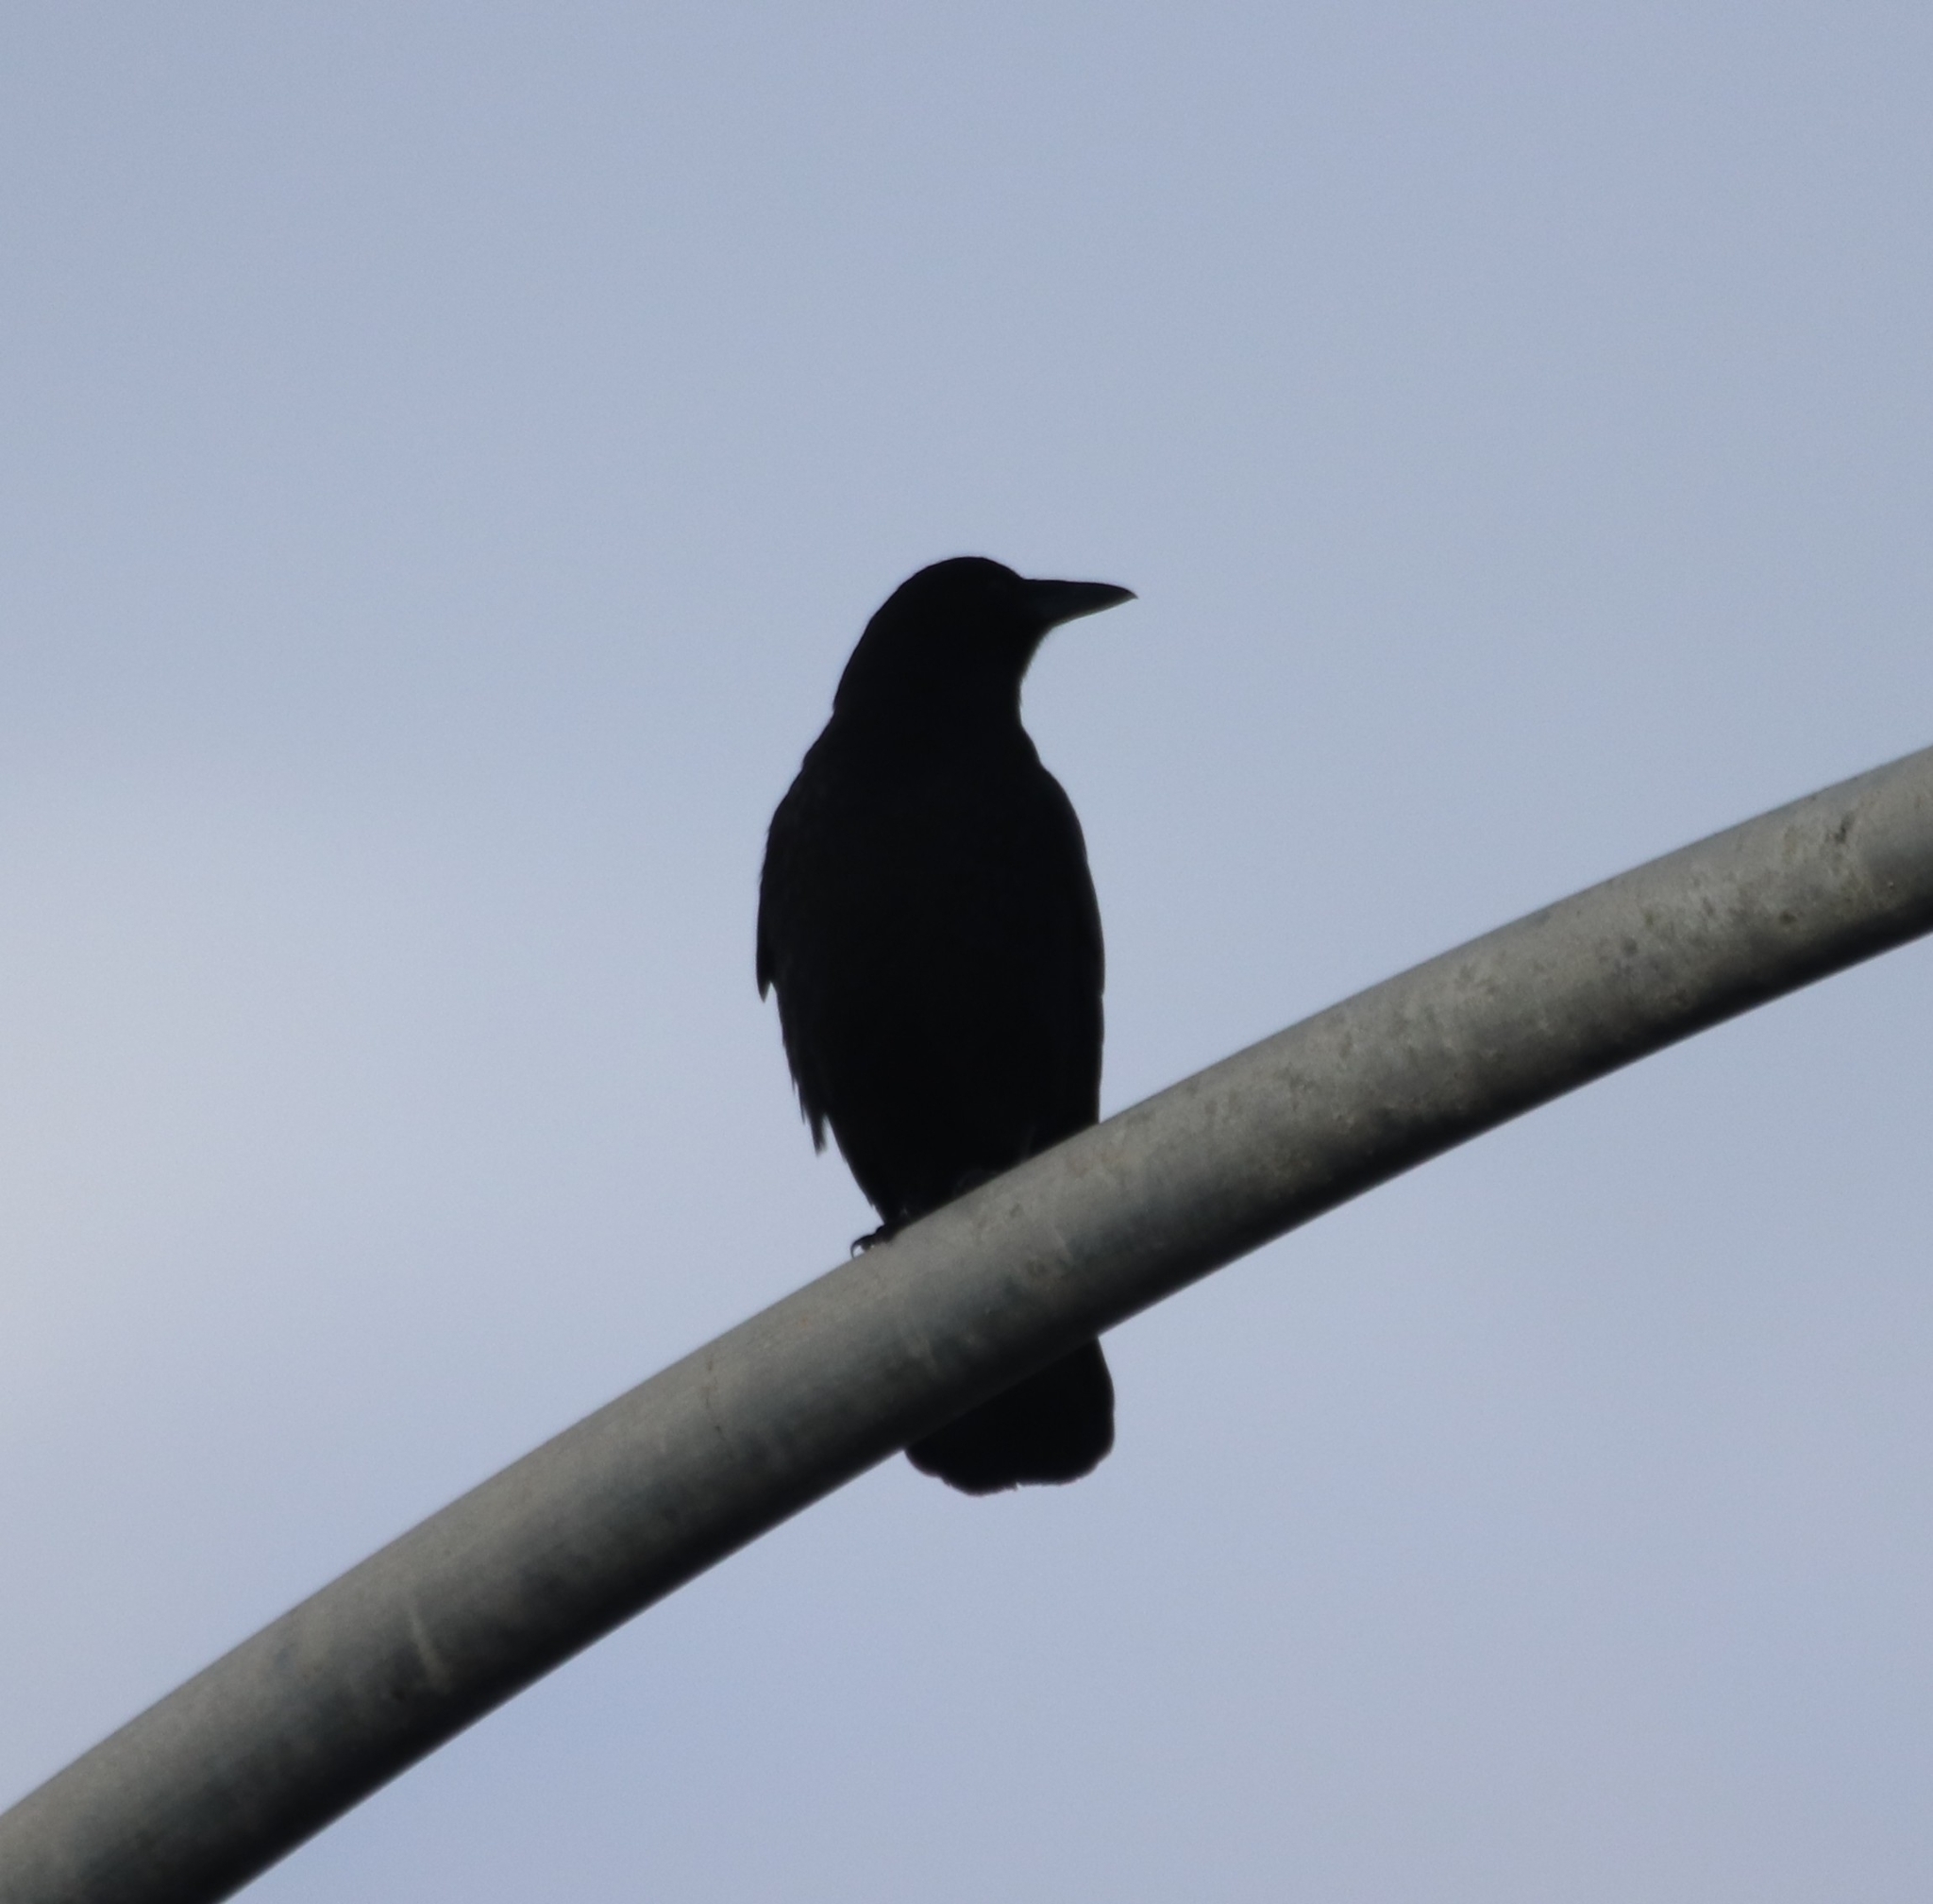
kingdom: Animalia
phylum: Chordata
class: Aves
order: Passeriformes
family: Corvidae
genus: Corvus
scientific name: Corvus brachyrhynchos
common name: American crow
